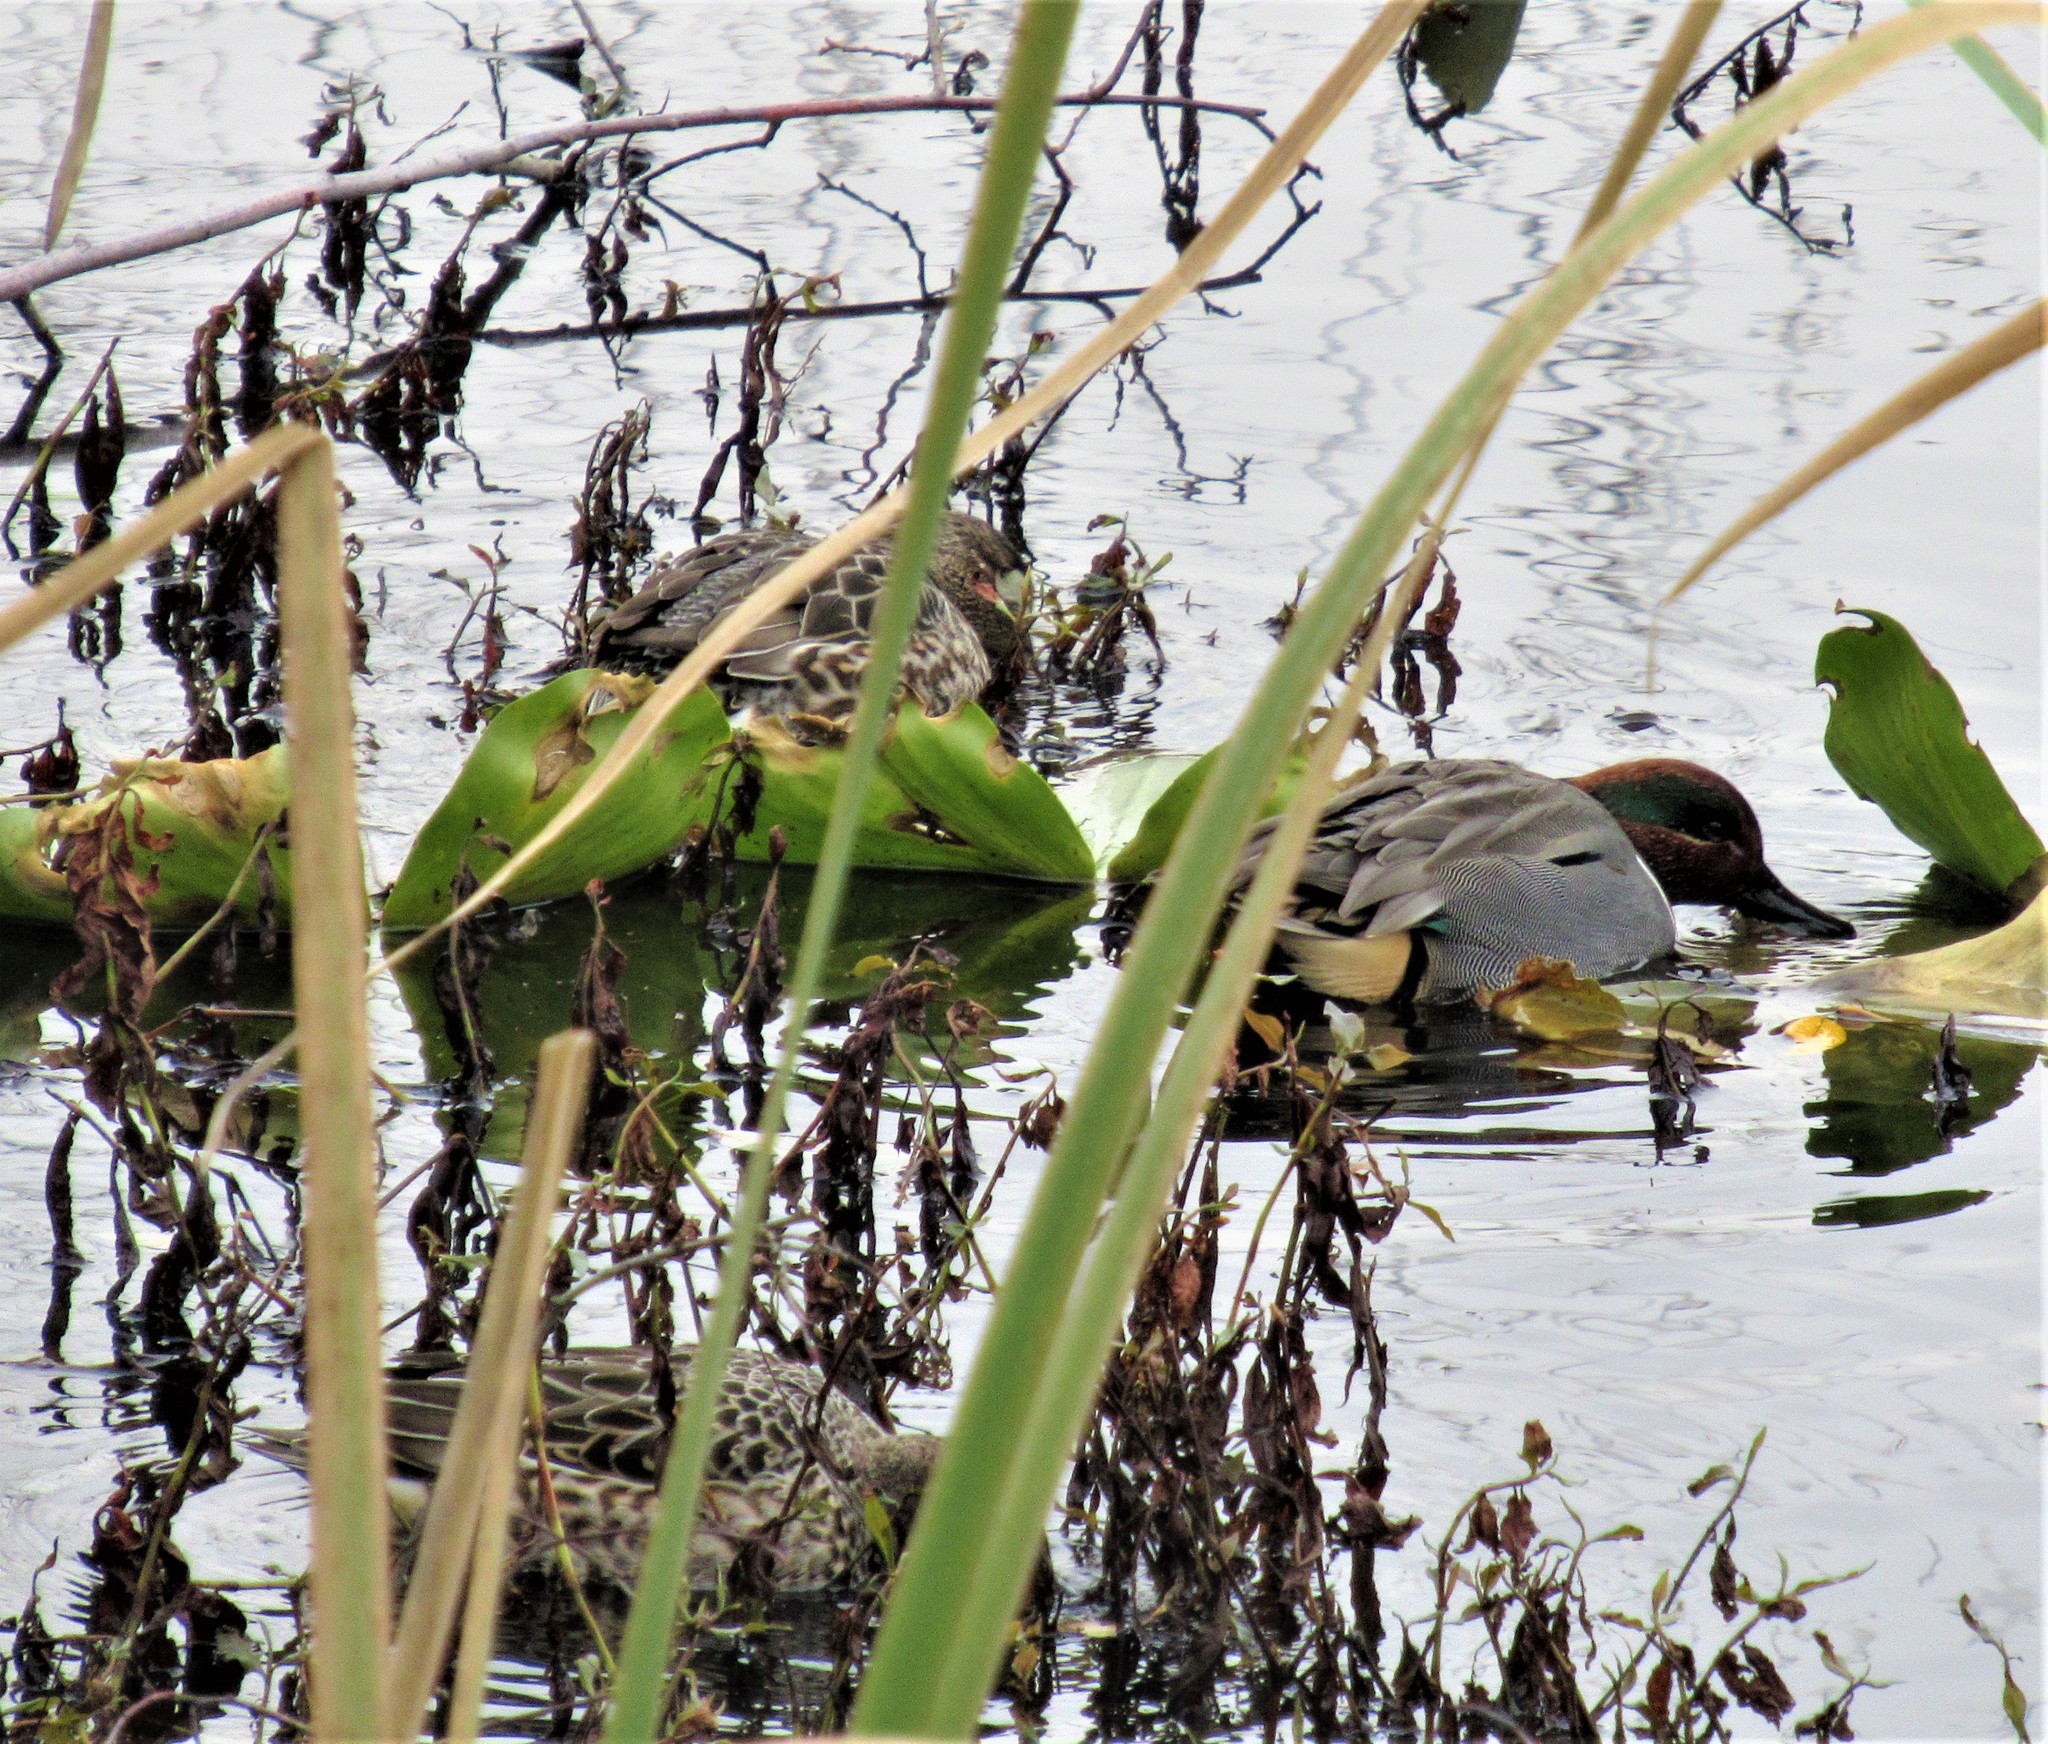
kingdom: Animalia
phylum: Chordata
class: Aves
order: Anseriformes
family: Anatidae
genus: Anas
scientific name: Anas carolinensis
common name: Green-winged teal
